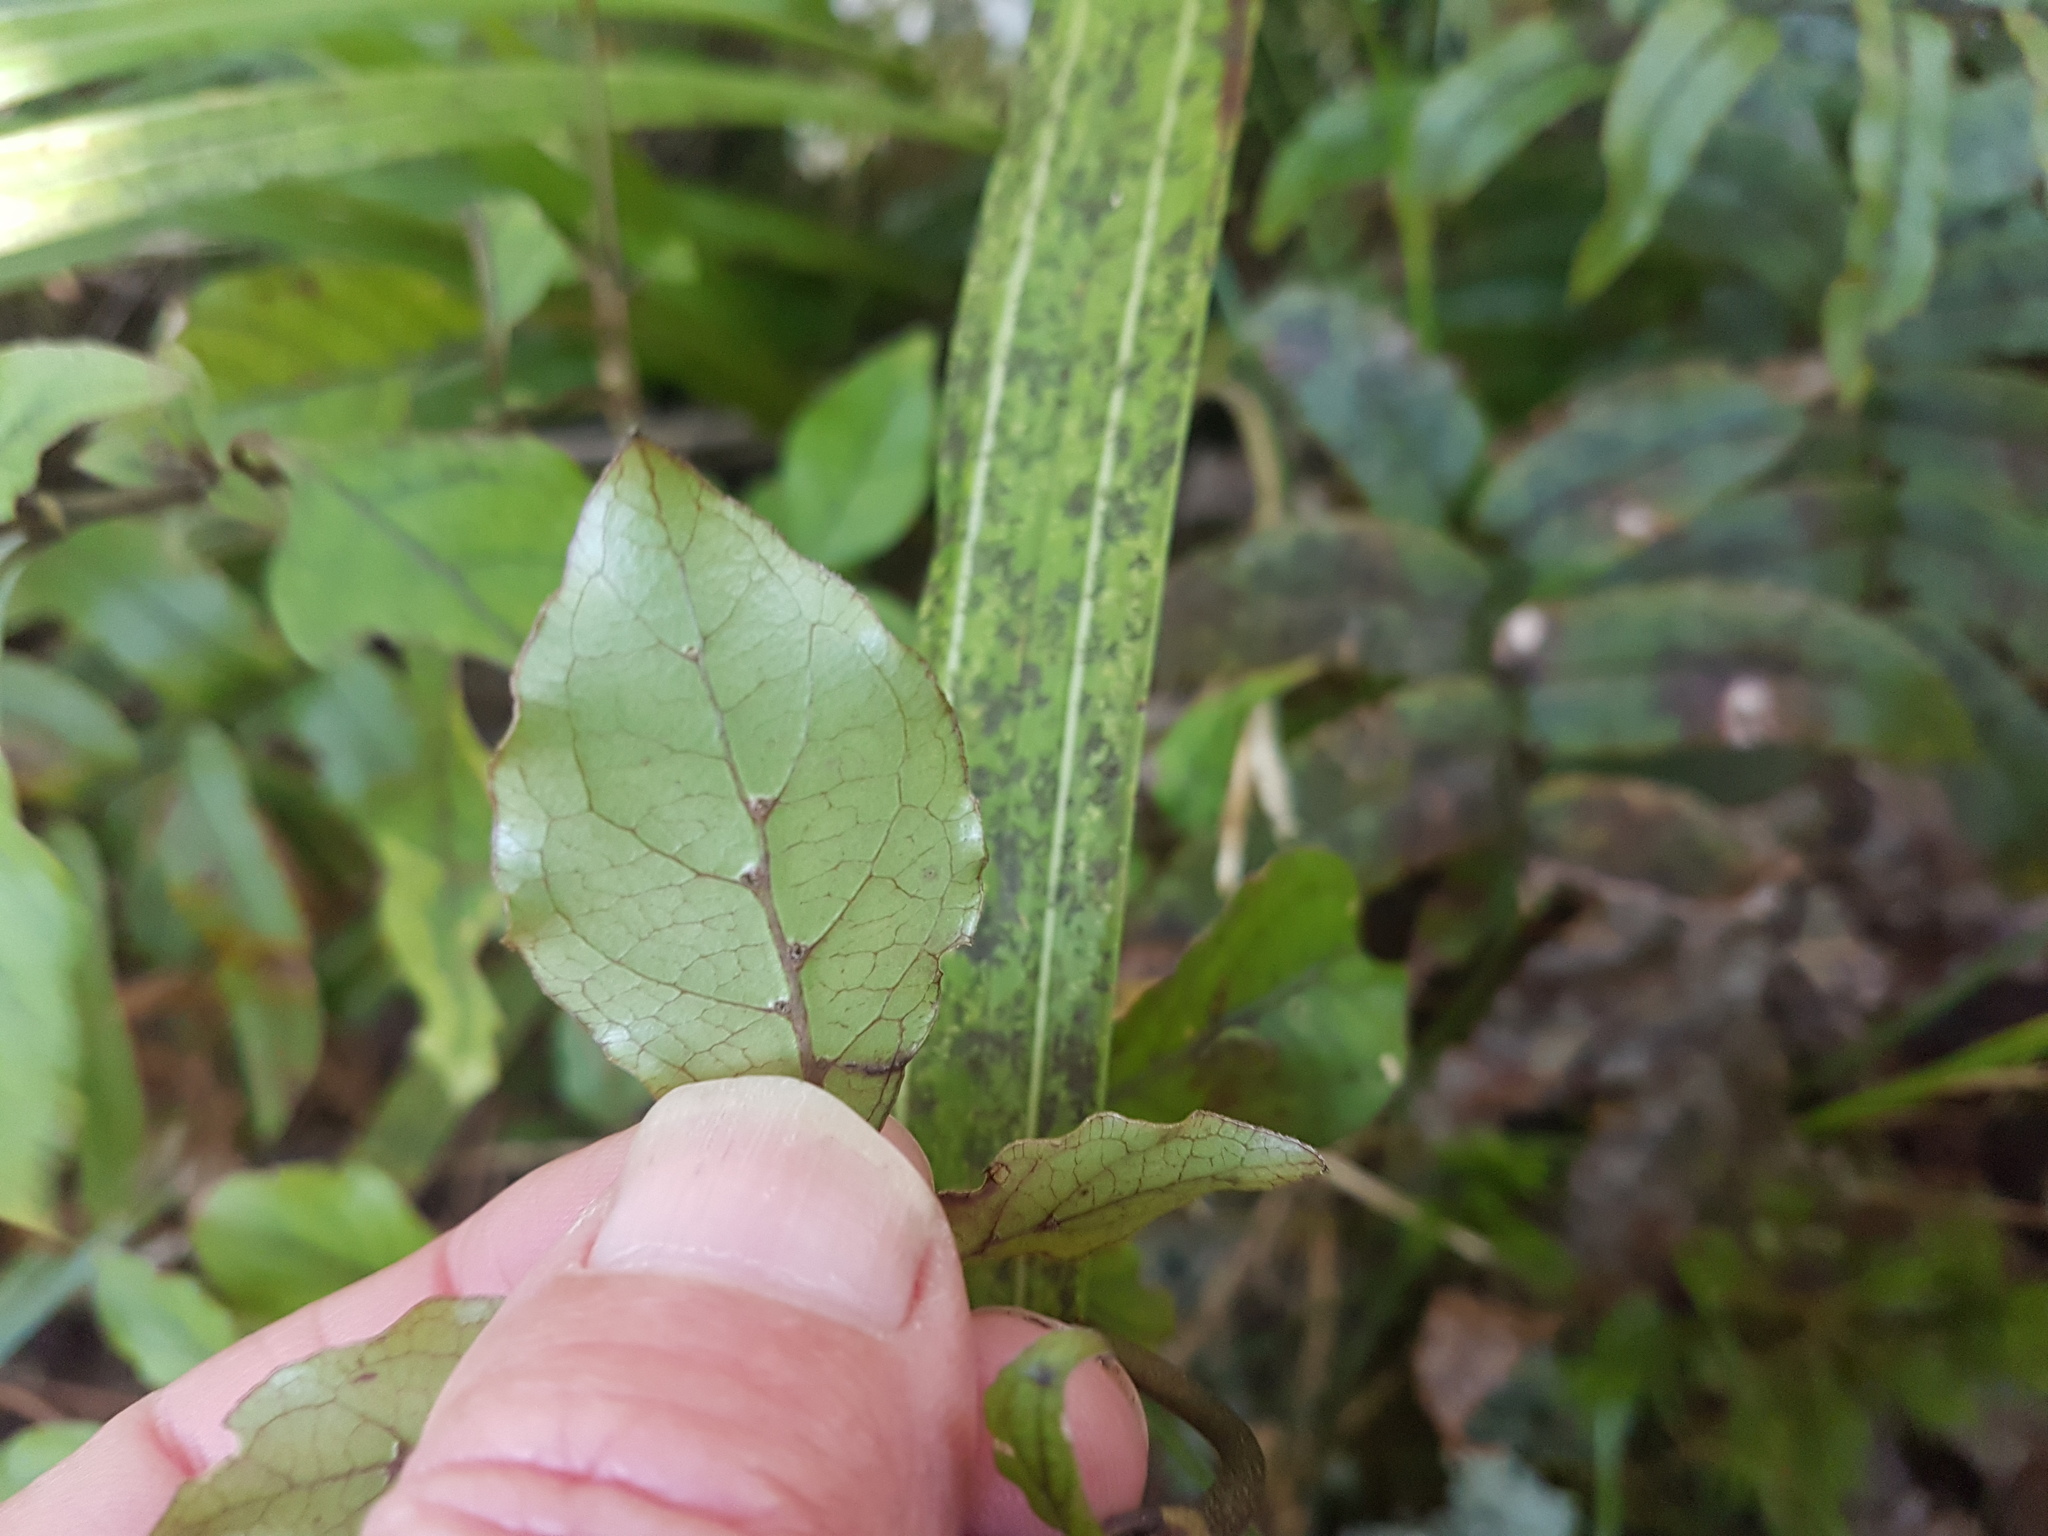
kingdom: Plantae
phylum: Tracheophyta
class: Magnoliopsida
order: Gentianales
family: Rubiaceae
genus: Coprosma
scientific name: Coprosma tenuifolia
